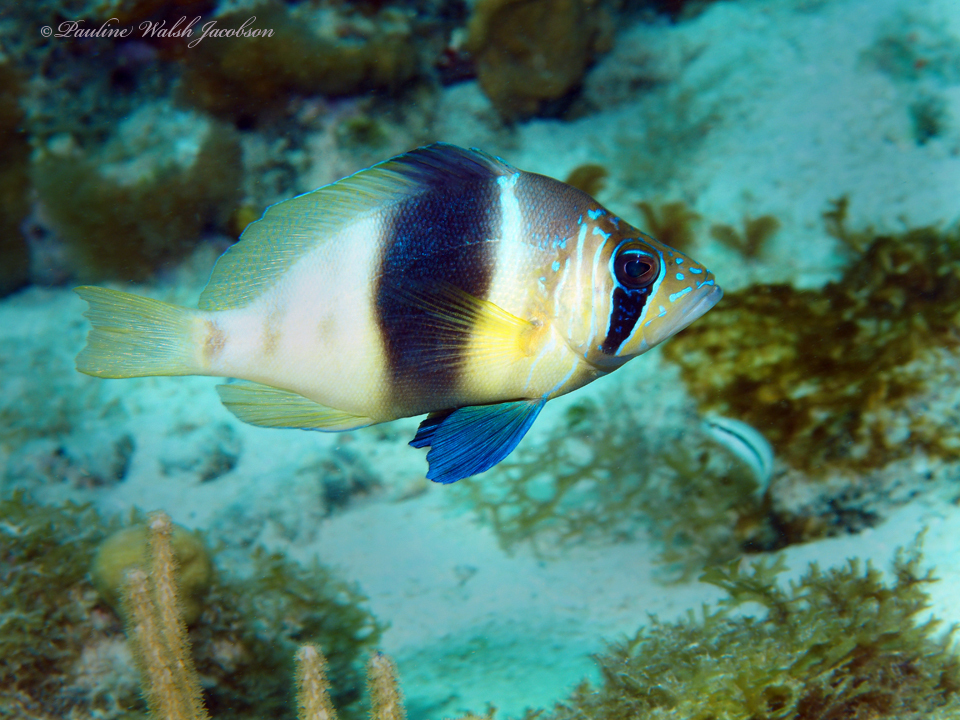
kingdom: Animalia
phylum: Chordata
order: Perciformes
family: Serranidae
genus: Hypoplectrus
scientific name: Hypoplectrus puella
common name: Barred hamlet
